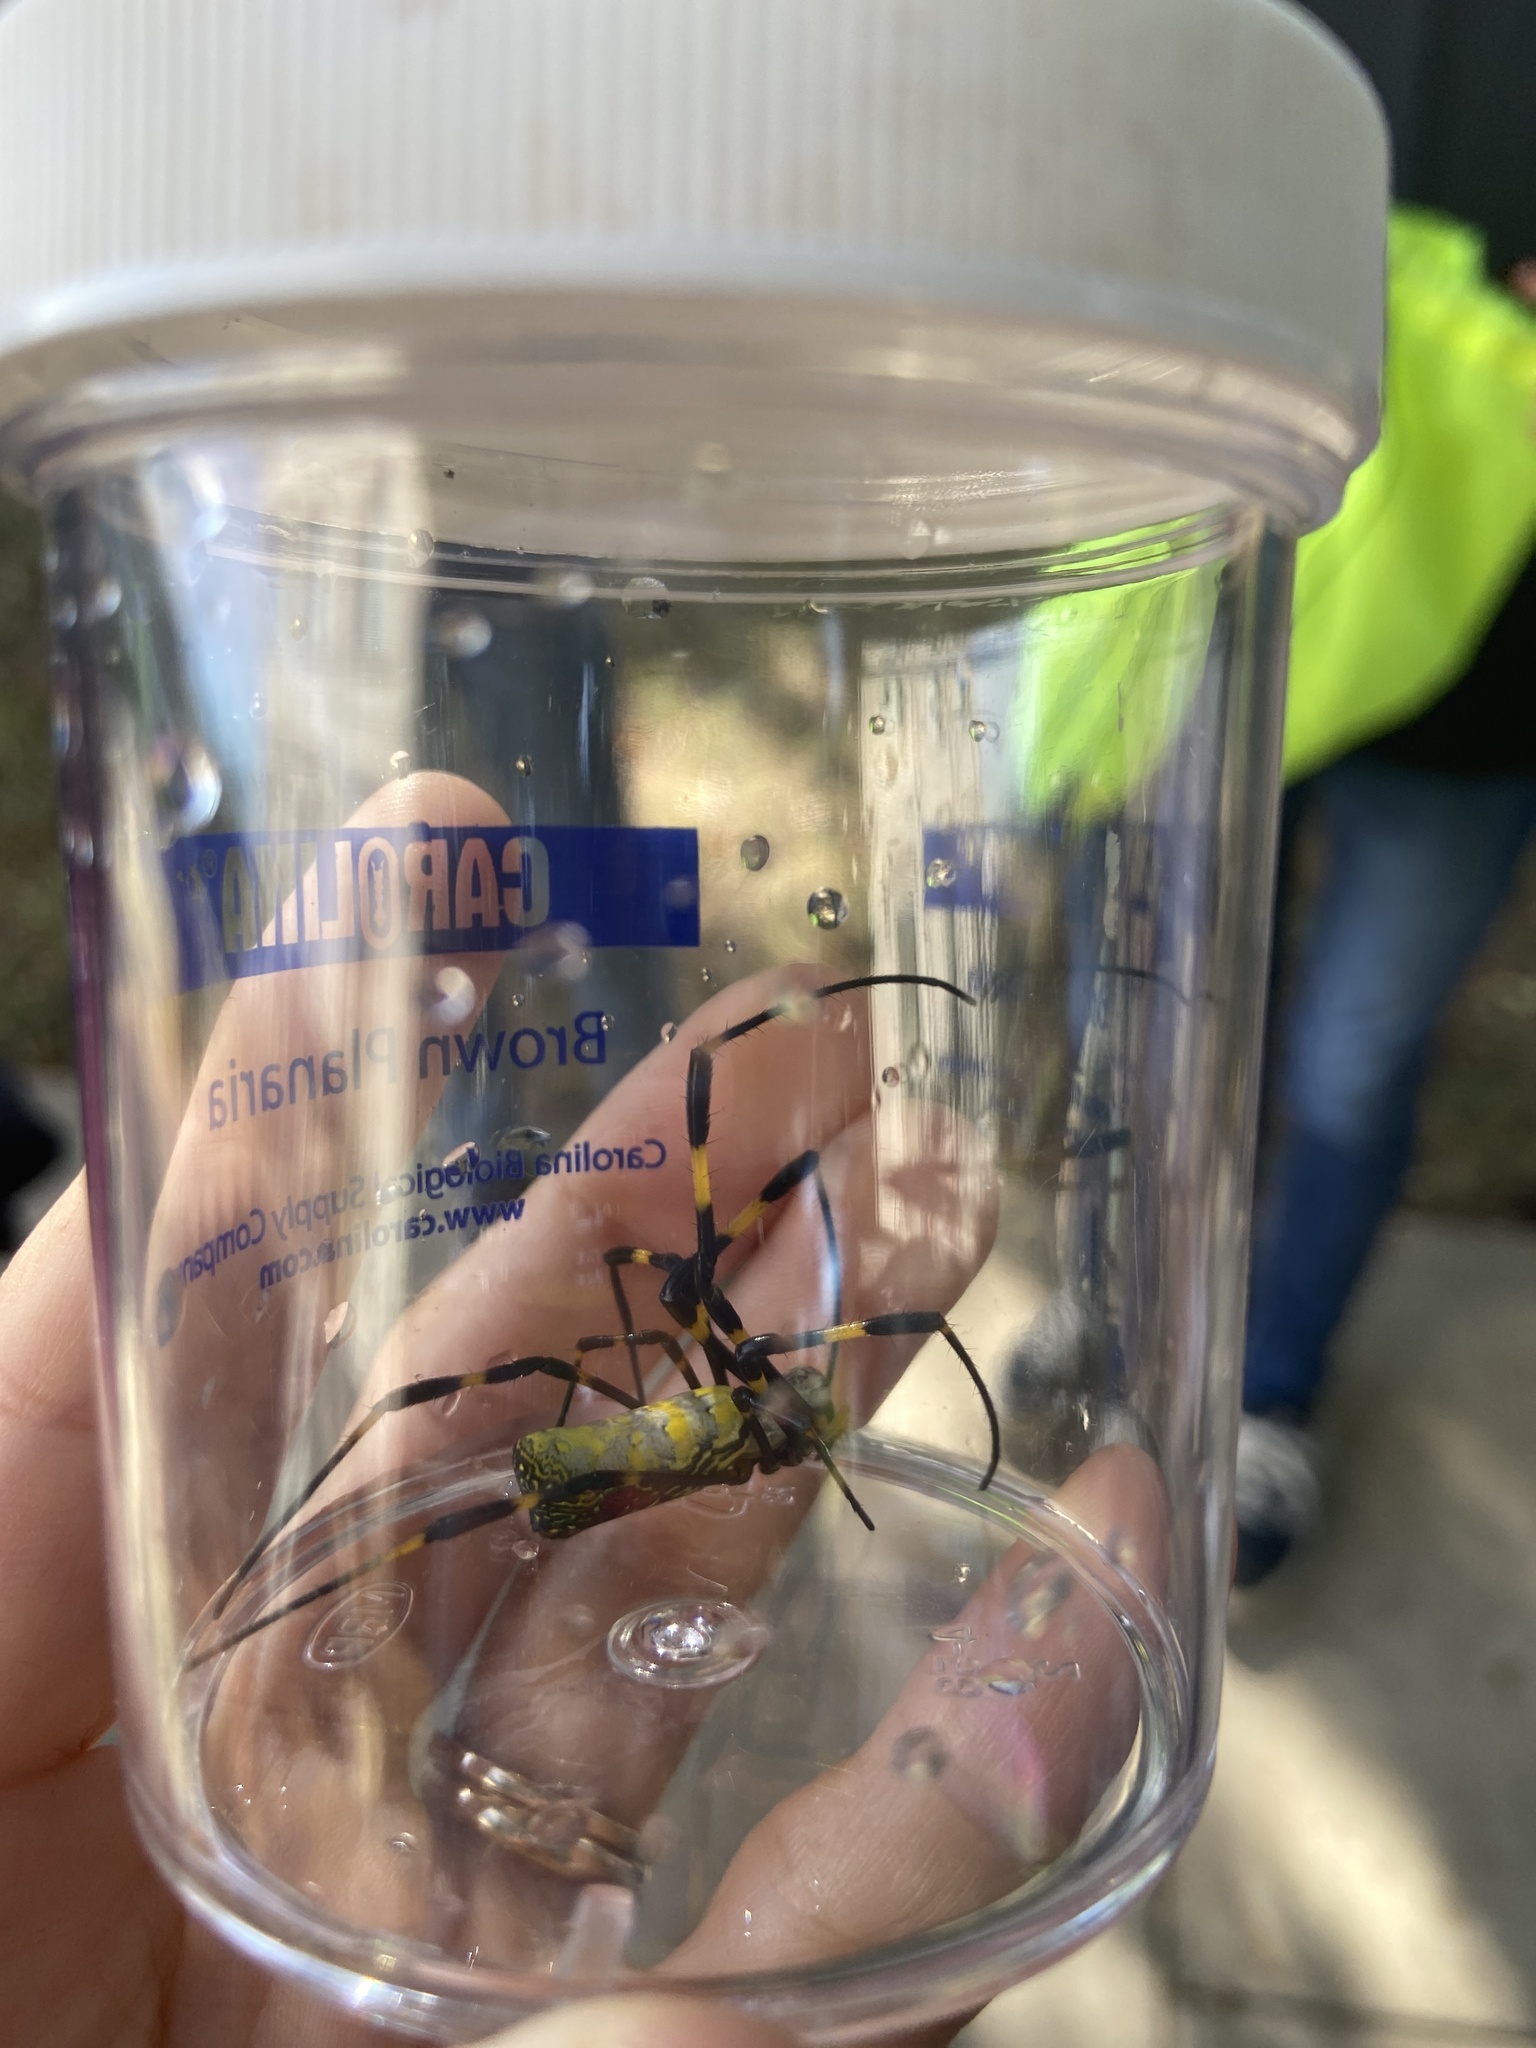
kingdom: Animalia
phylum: Arthropoda
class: Arachnida
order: Araneae
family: Araneidae
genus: Trichonephila
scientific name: Trichonephila clavata
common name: Jorō spider
